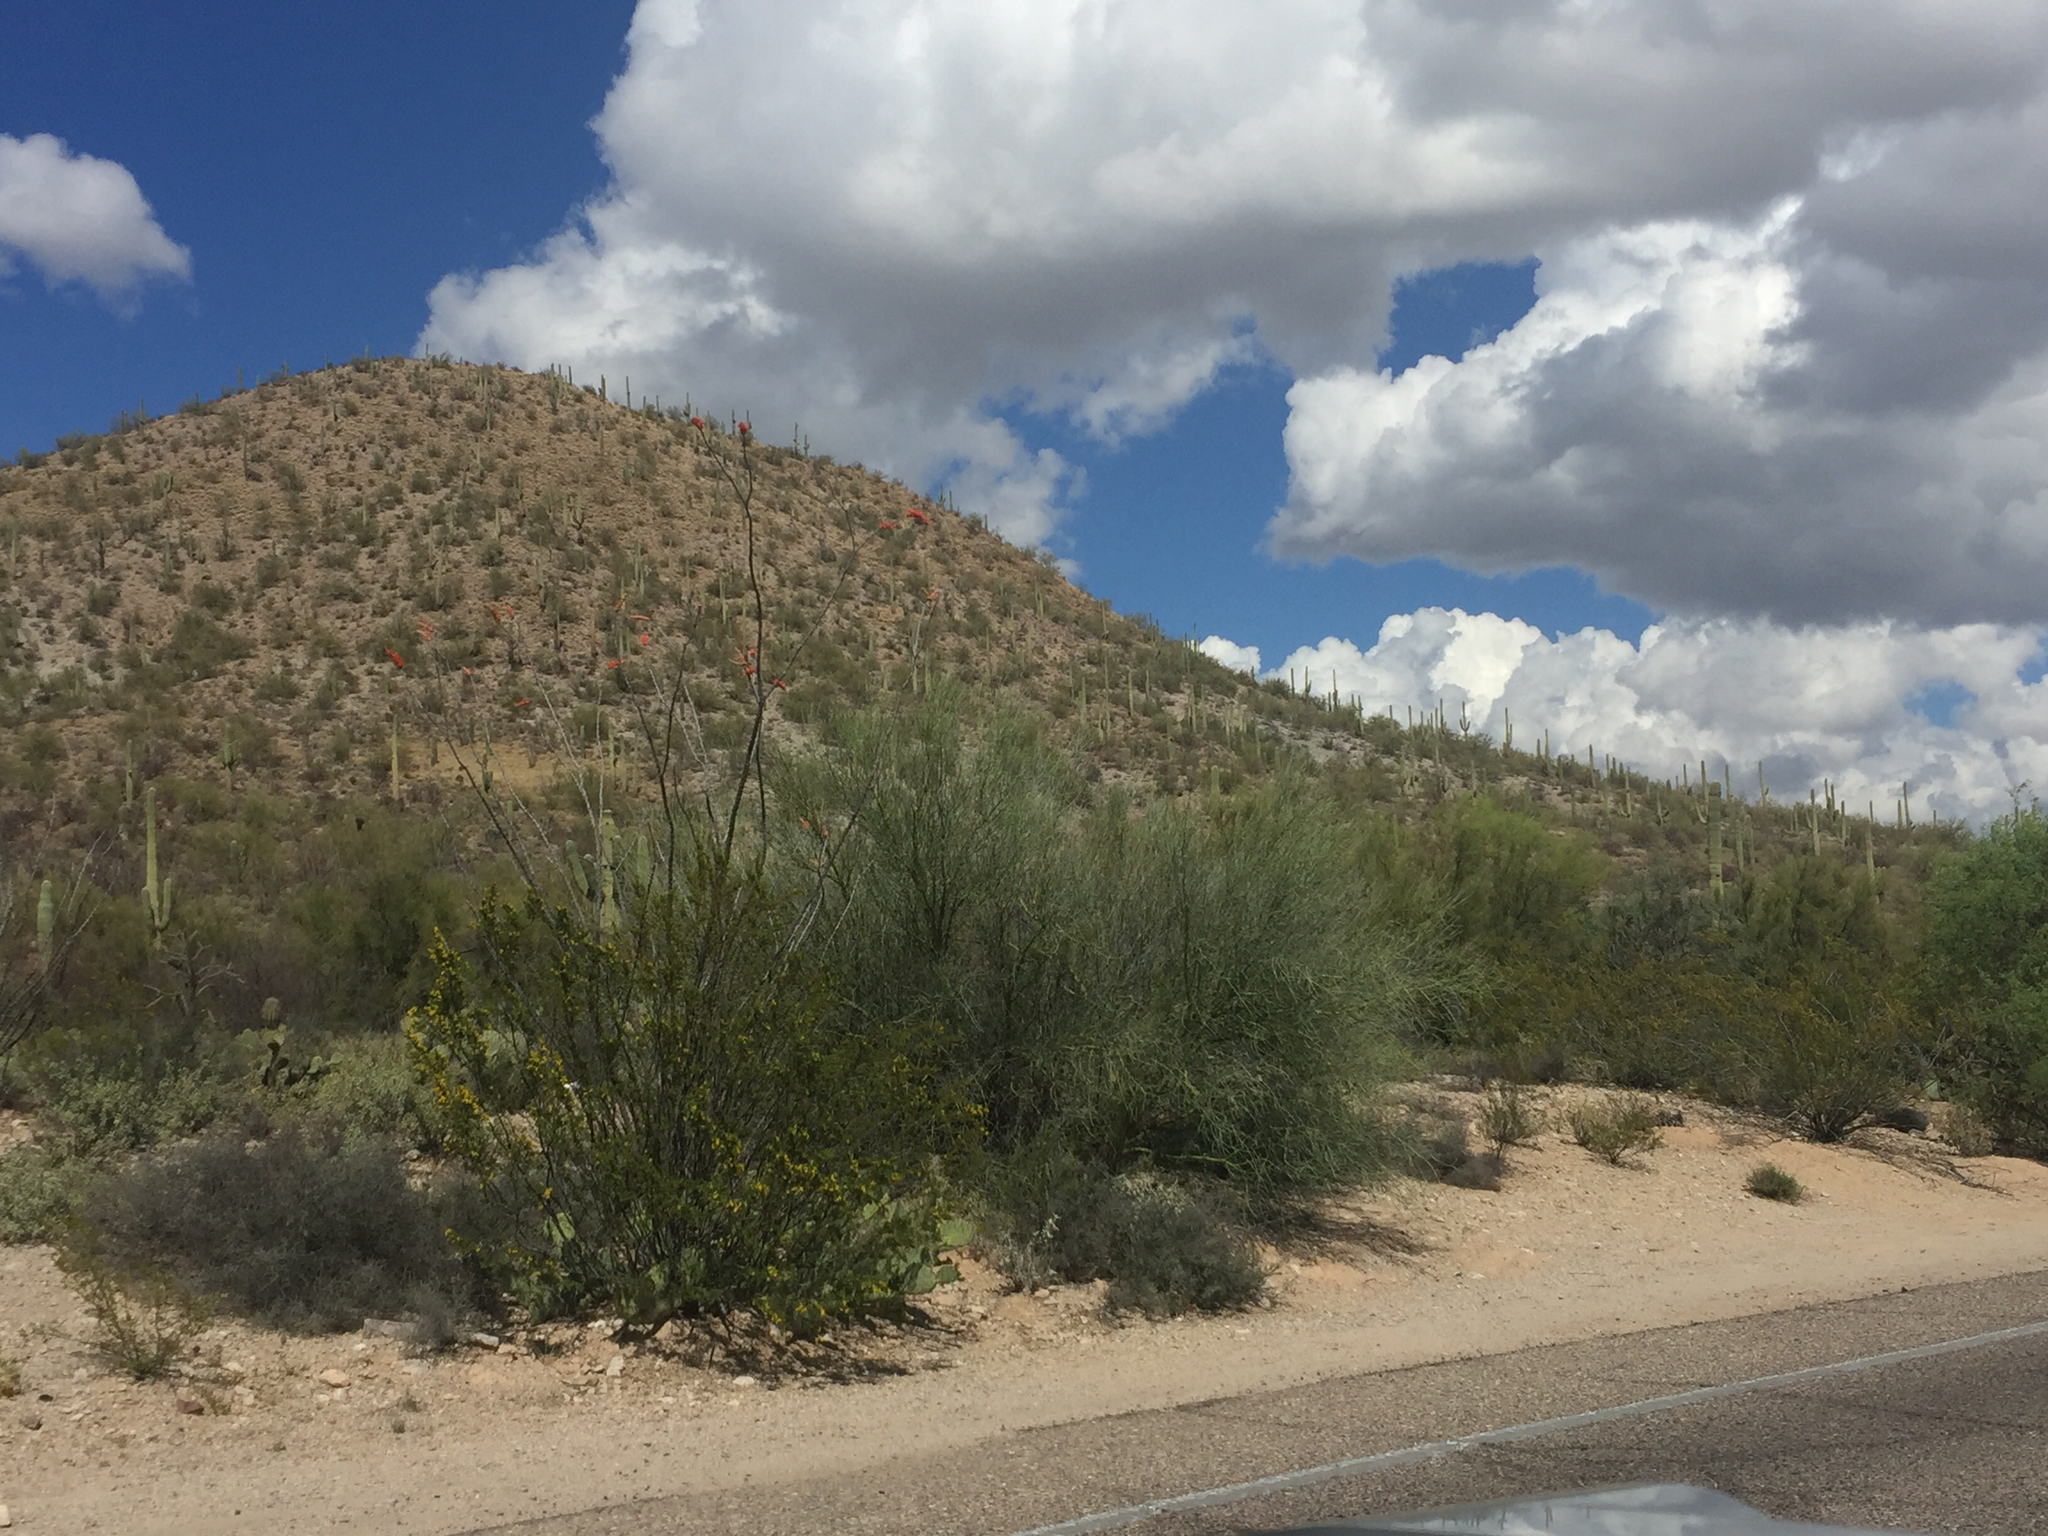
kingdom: Plantae
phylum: Tracheophyta
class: Magnoliopsida
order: Fabales
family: Fabaceae
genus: Parkinsonia
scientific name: Parkinsonia microphylla
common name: Yellow paloverde
